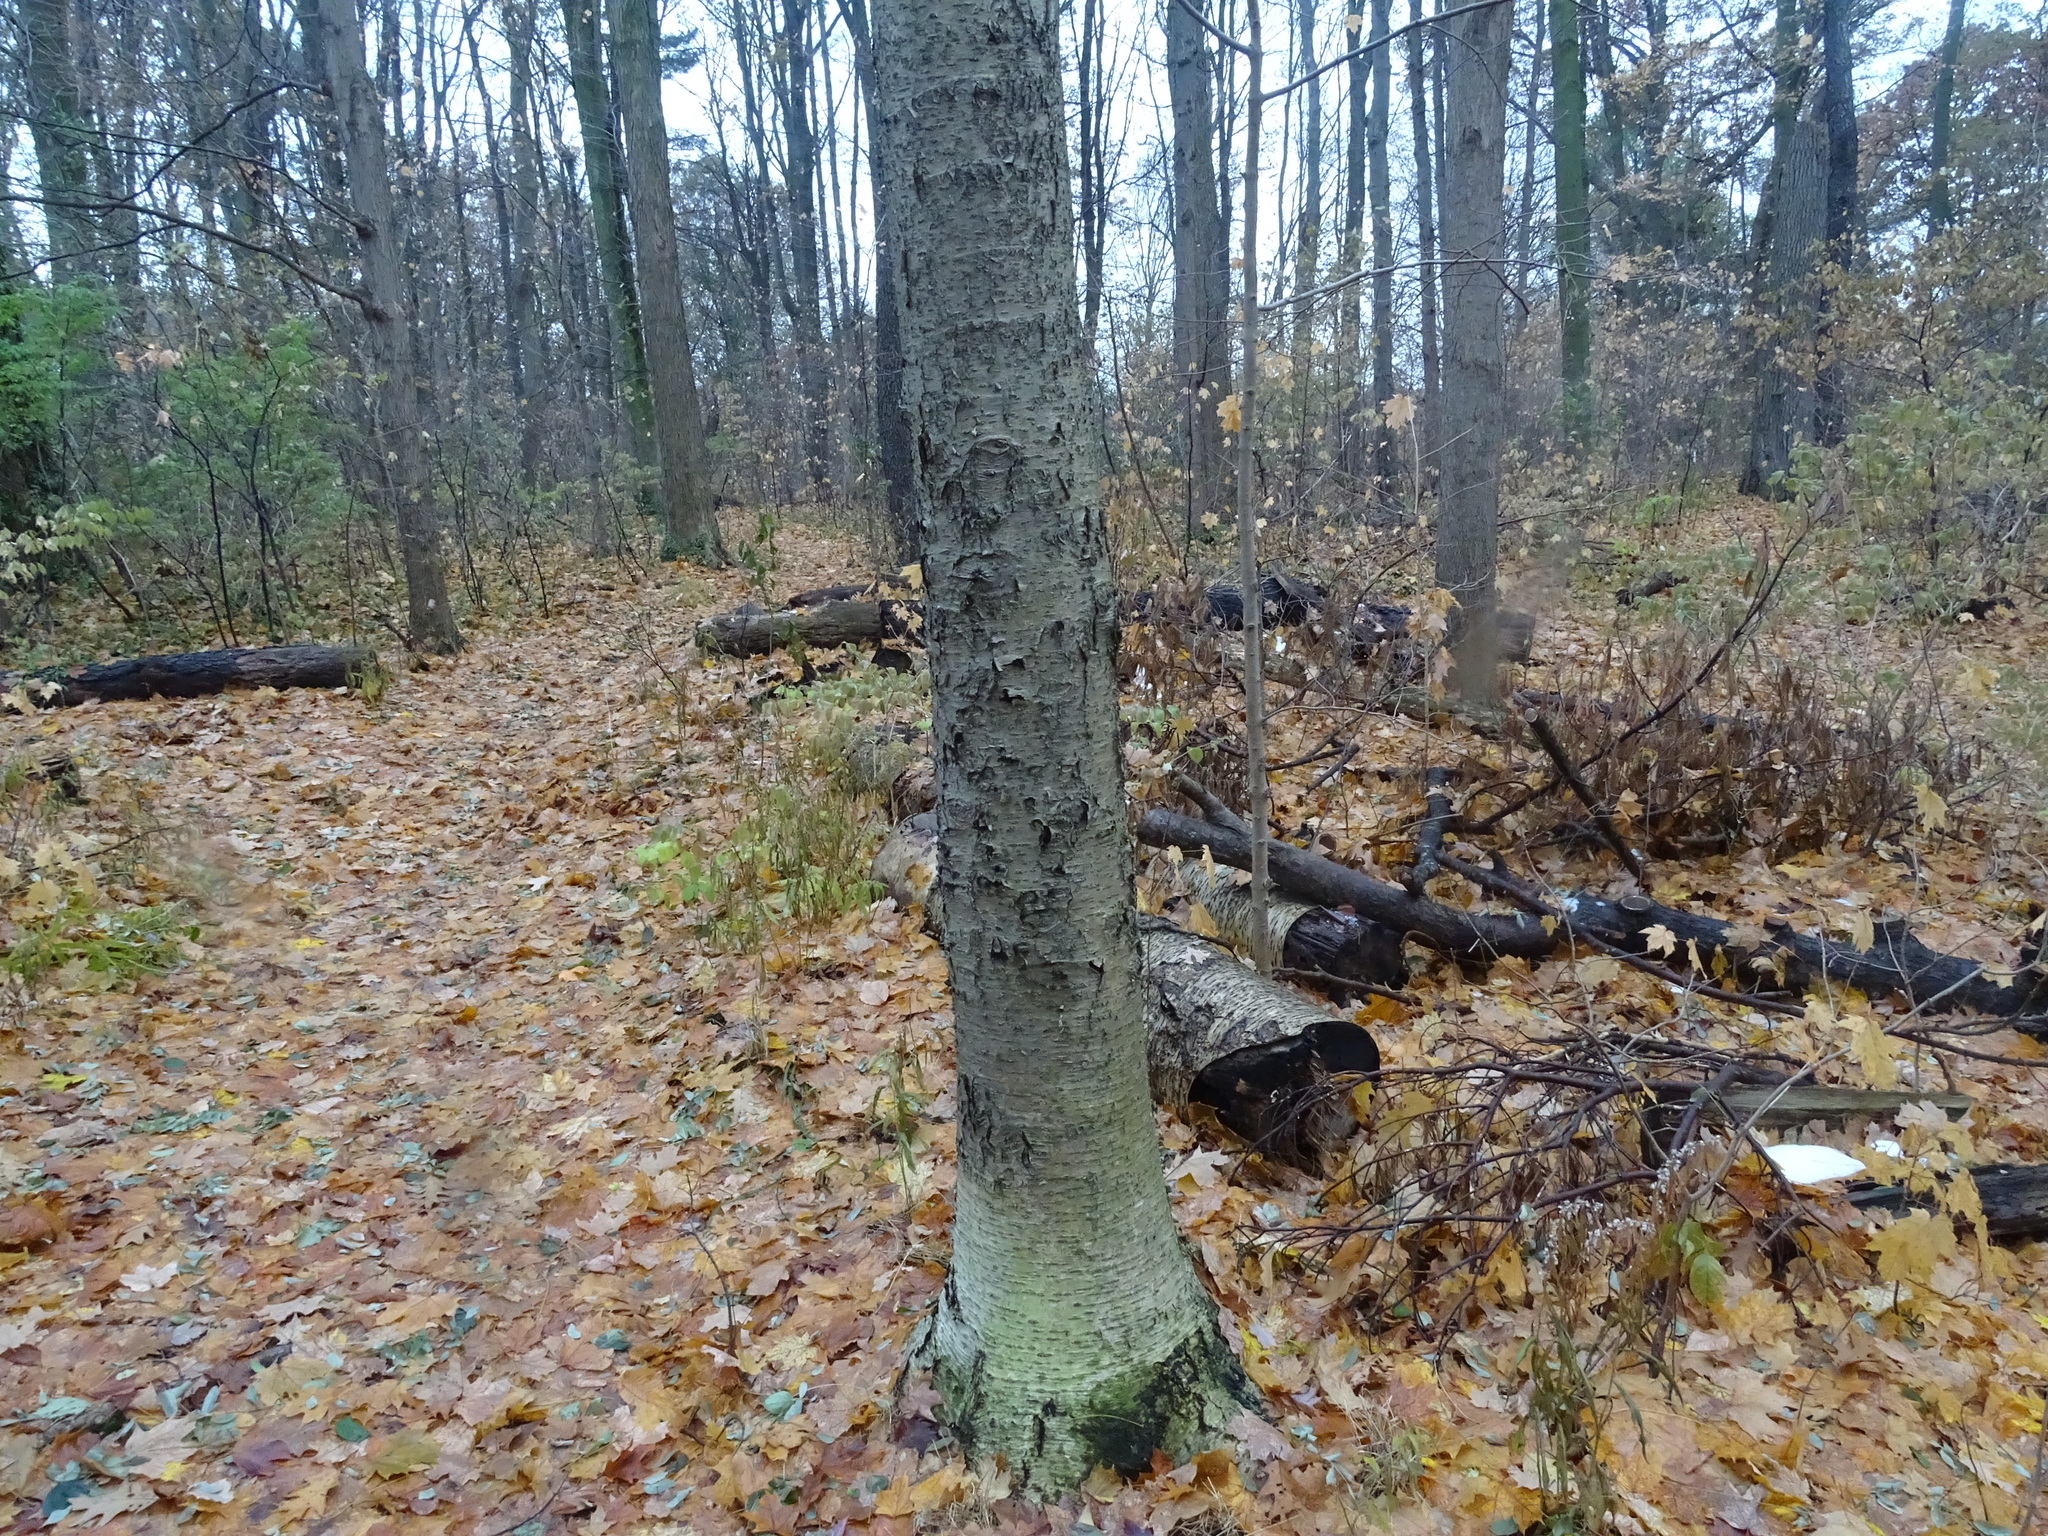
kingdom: Plantae
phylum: Tracheophyta
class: Magnoliopsida
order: Fagales
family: Betulaceae
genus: Betula
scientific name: Betula alleghaniensis
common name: Yellow birch
